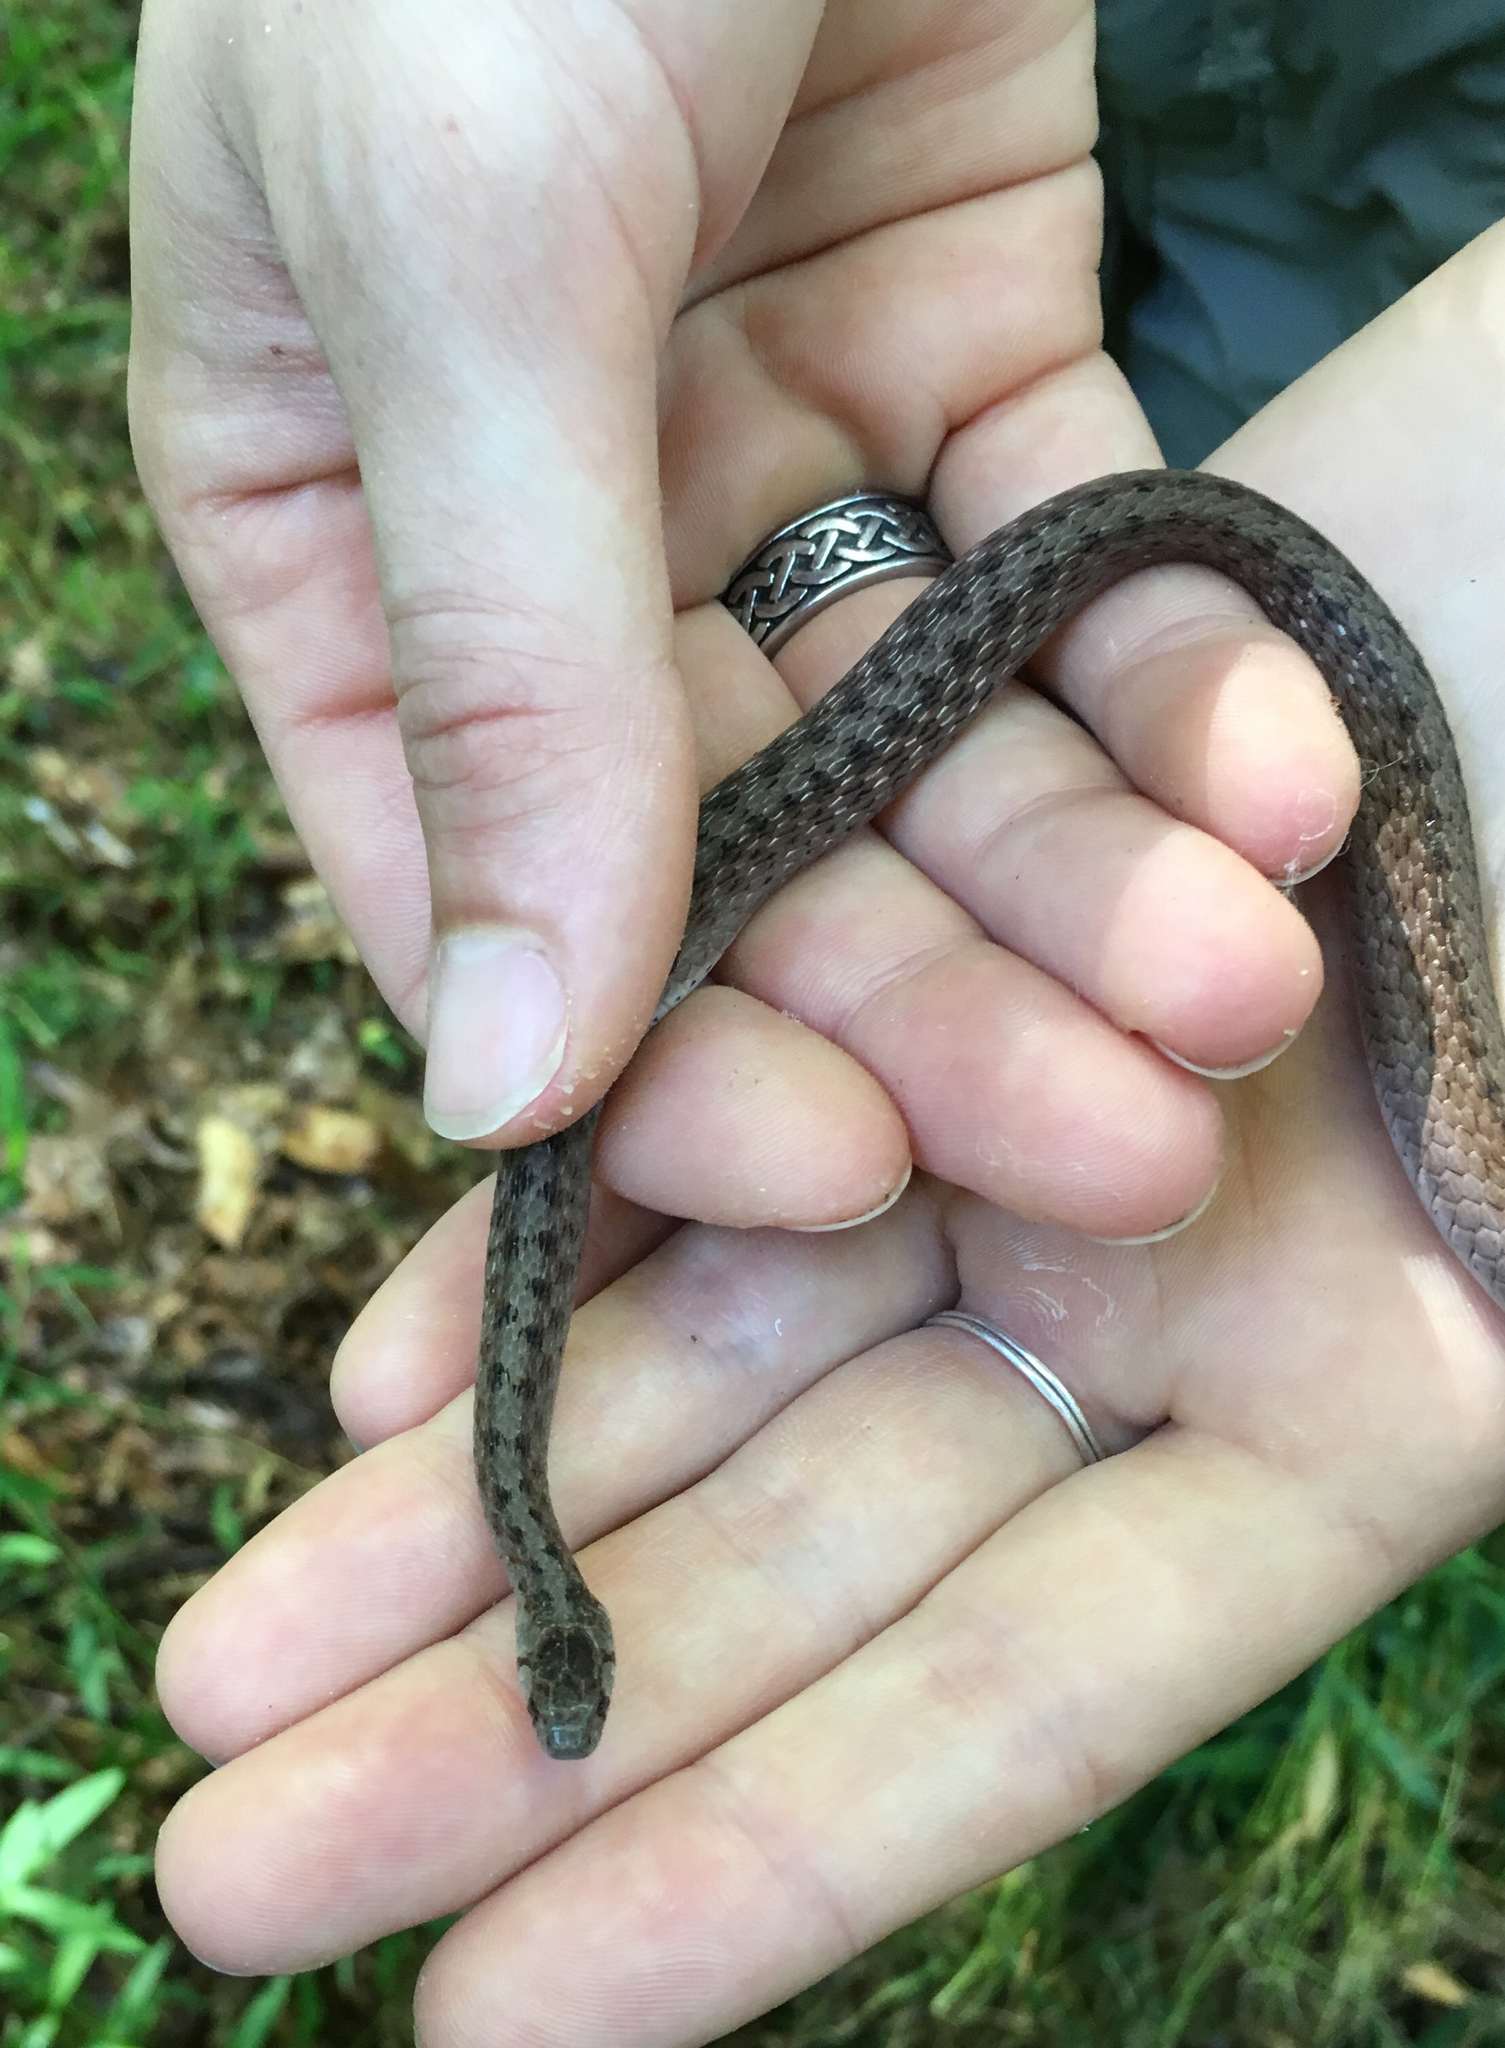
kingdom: Animalia
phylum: Chordata
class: Squamata
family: Colubridae
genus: Storeria
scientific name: Storeria dekayi
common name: (dekay’s) brown snake
